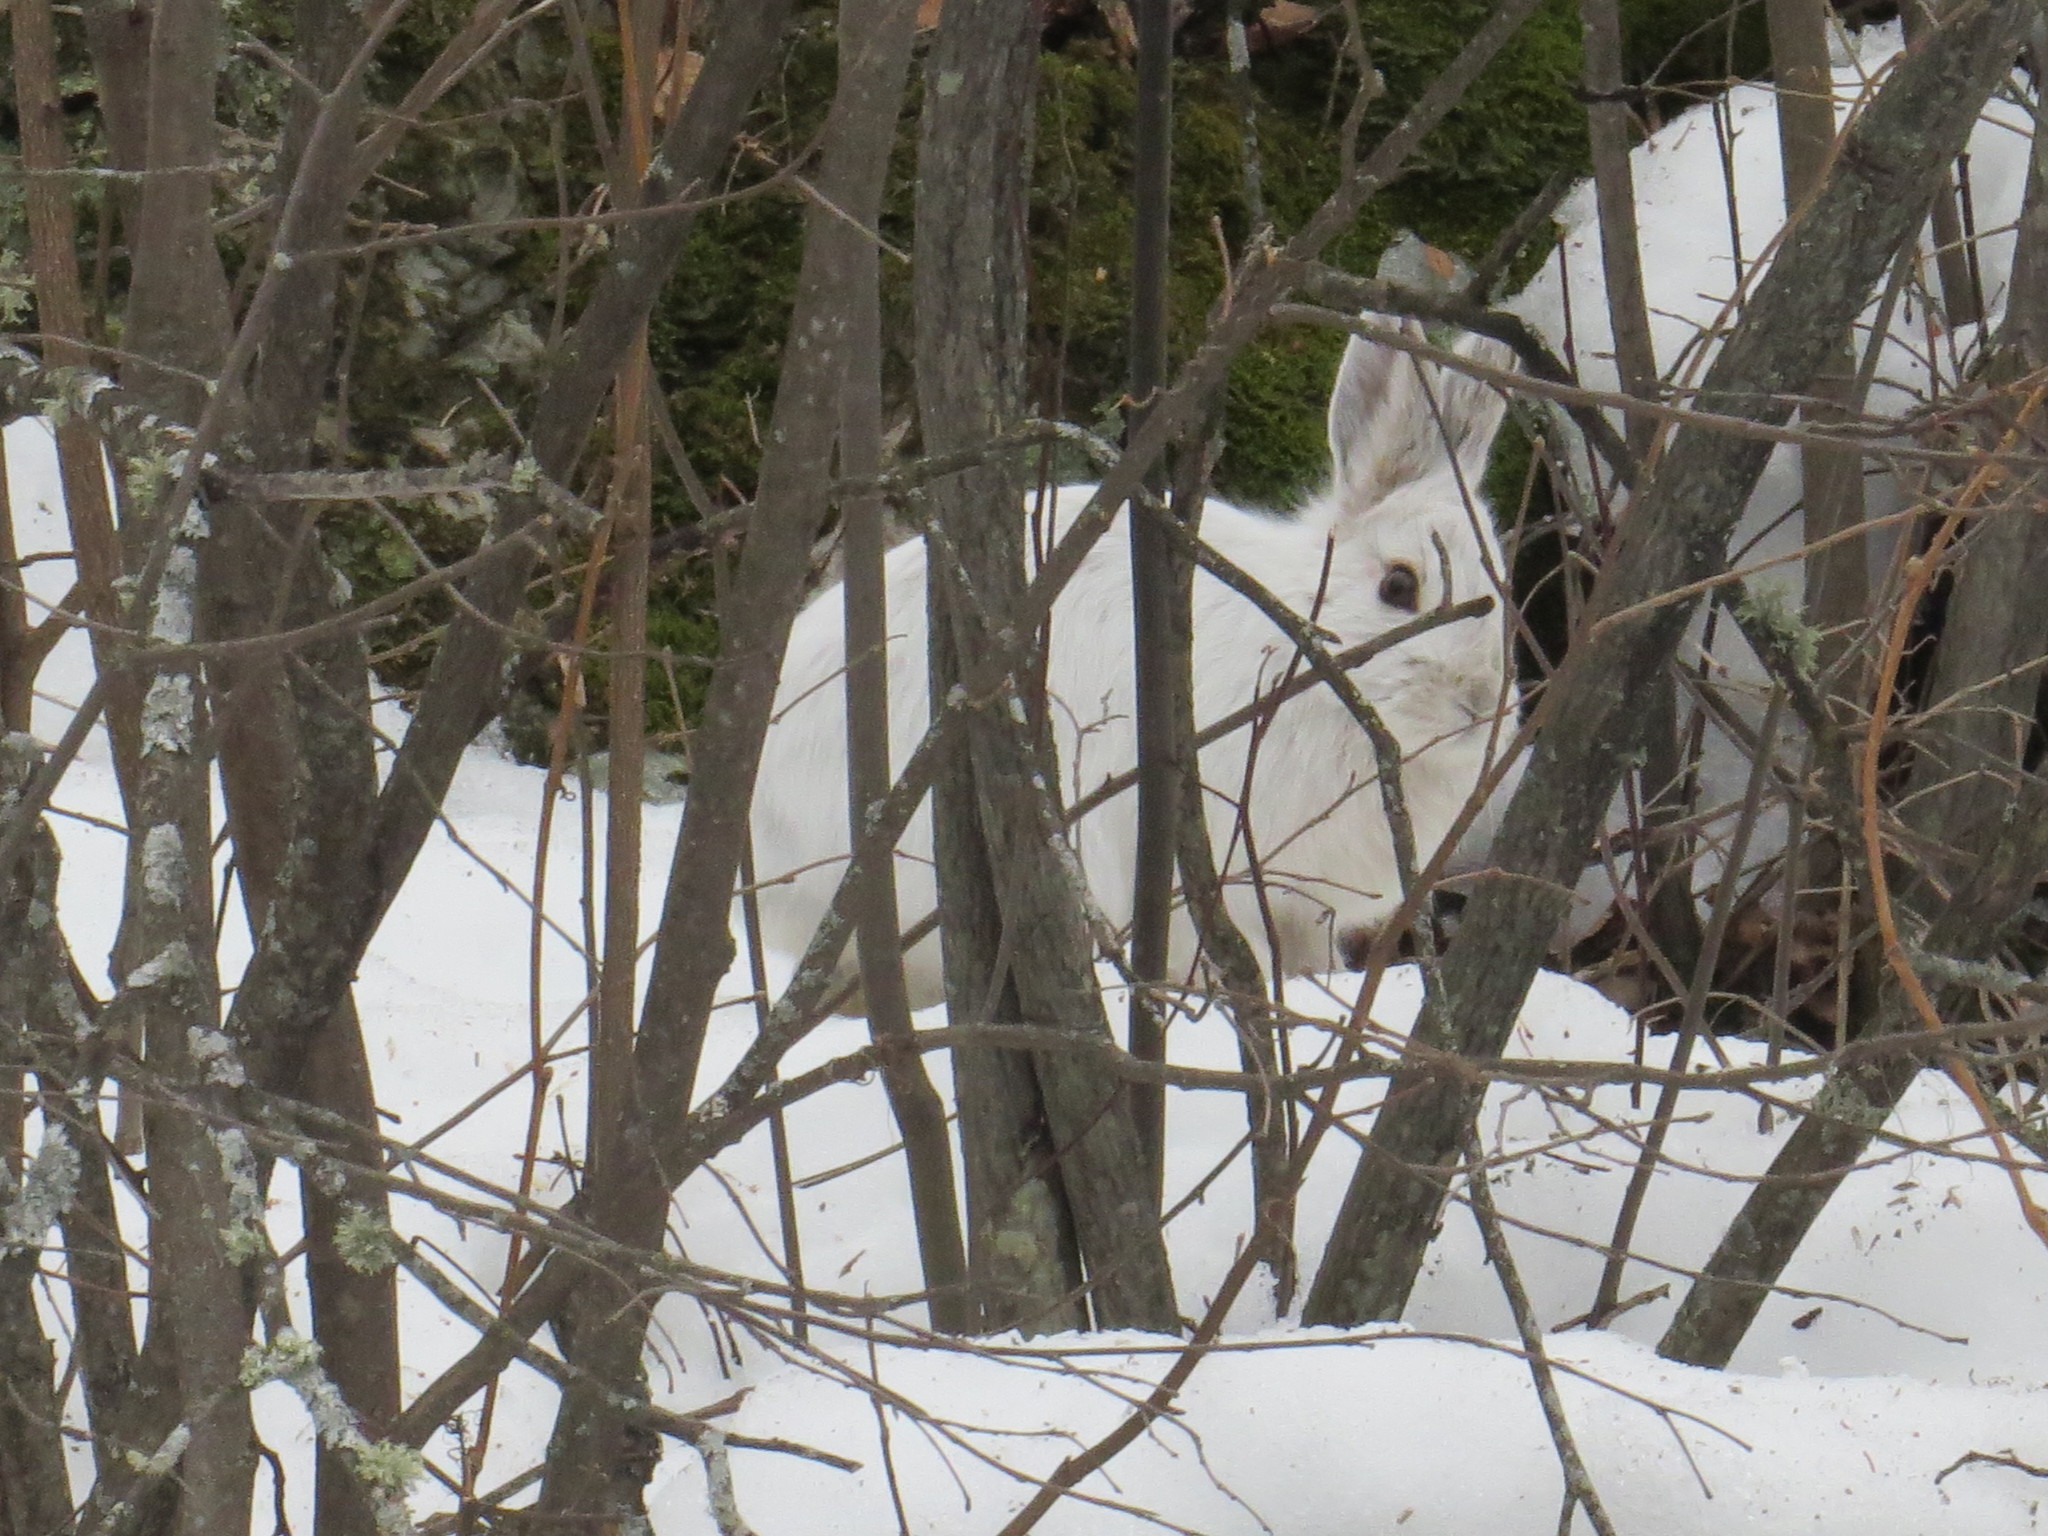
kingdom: Animalia
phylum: Chordata
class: Mammalia
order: Lagomorpha
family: Leporidae
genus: Lepus
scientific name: Lepus americanus
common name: Snowshoe hare
